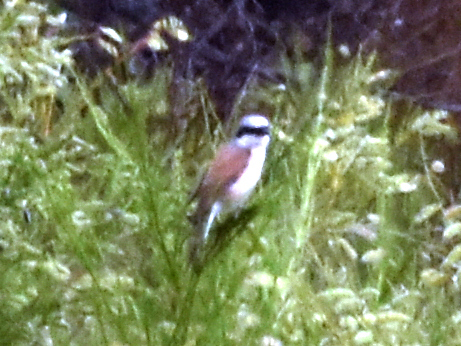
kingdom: Animalia
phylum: Chordata
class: Aves
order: Passeriformes
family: Laniidae
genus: Lanius
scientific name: Lanius collurio
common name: Red-backed shrike
